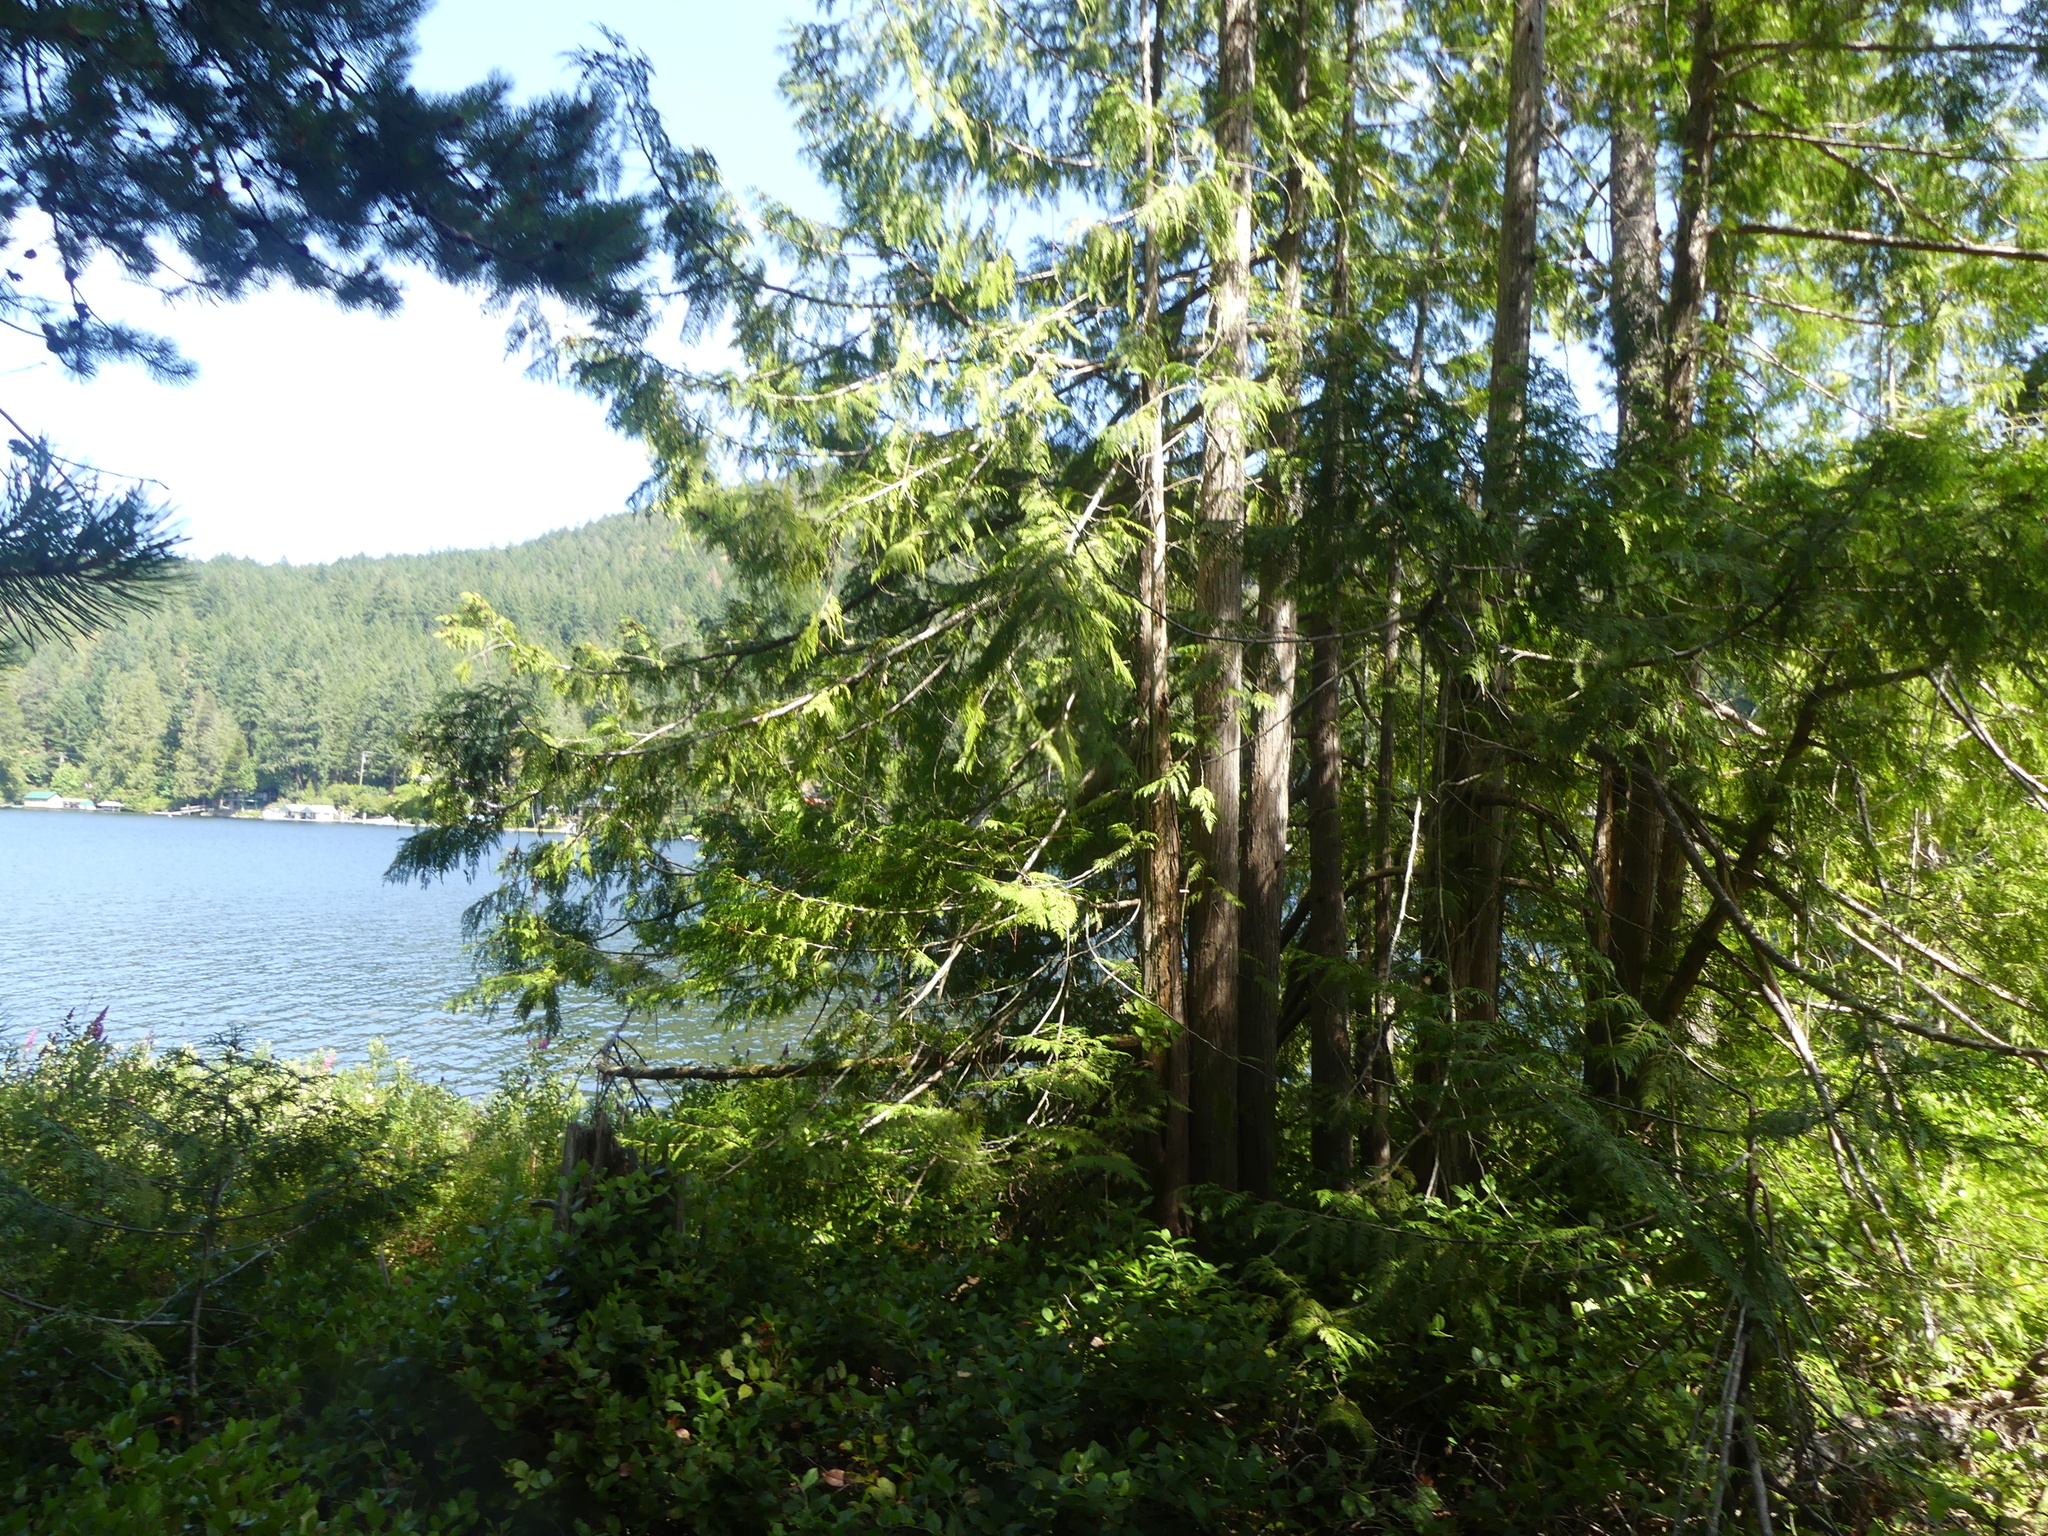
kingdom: Plantae
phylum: Tracheophyta
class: Pinopsida
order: Pinales
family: Cupressaceae
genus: Thuja
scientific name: Thuja plicata
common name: Western red-cedar
